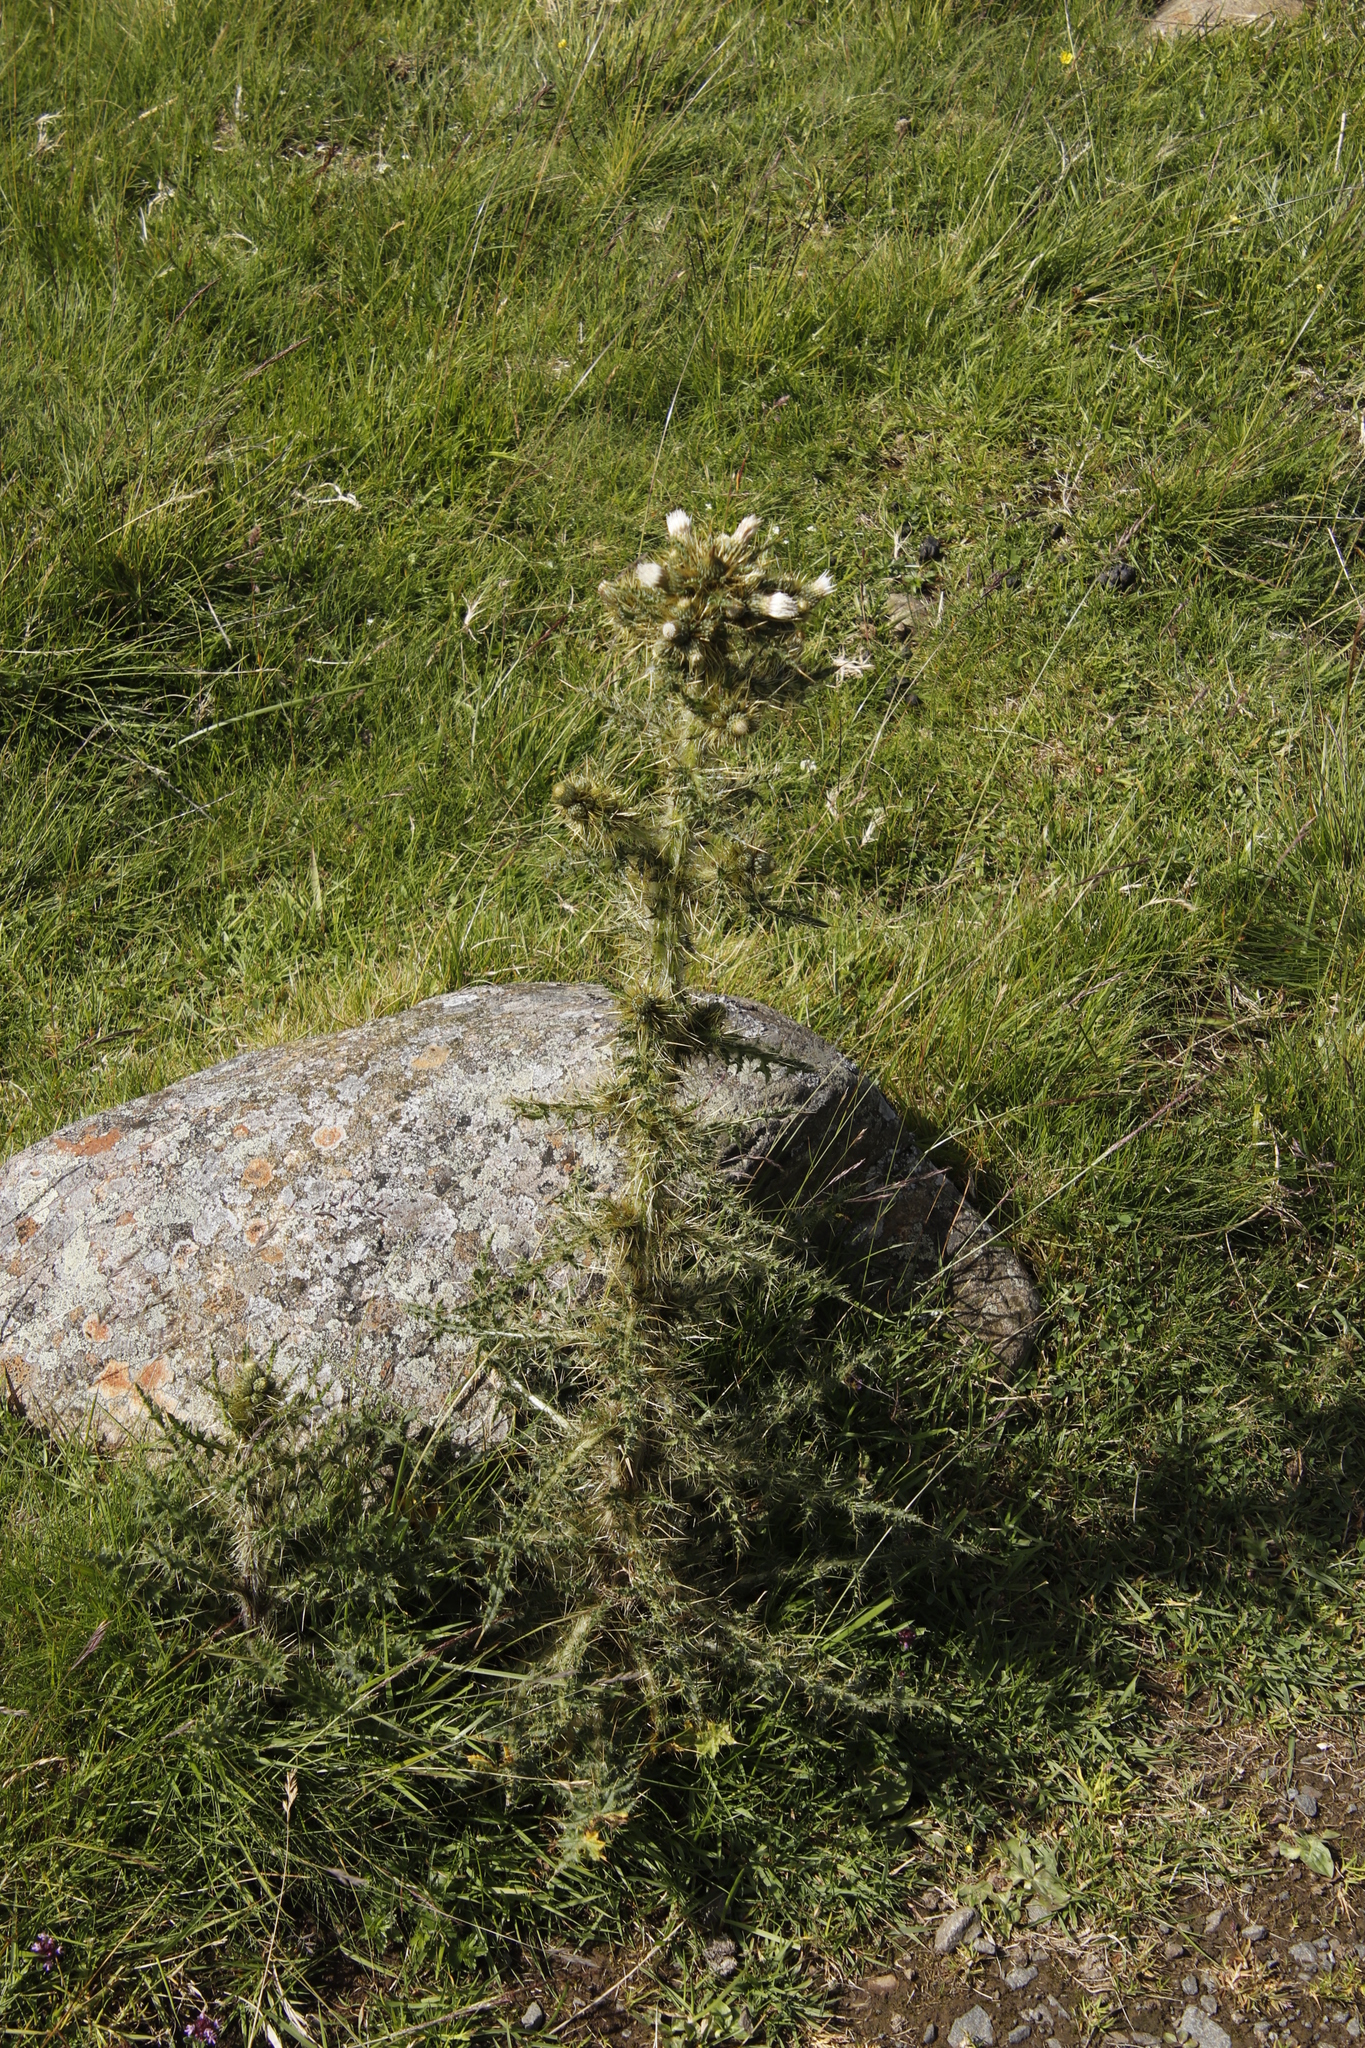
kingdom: Plantae
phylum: Tracheophyta
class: Magnoliopsida
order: Asterales
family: Asteraceae
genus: Cirsium
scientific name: Cirsium palustre
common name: Marsh thistle
